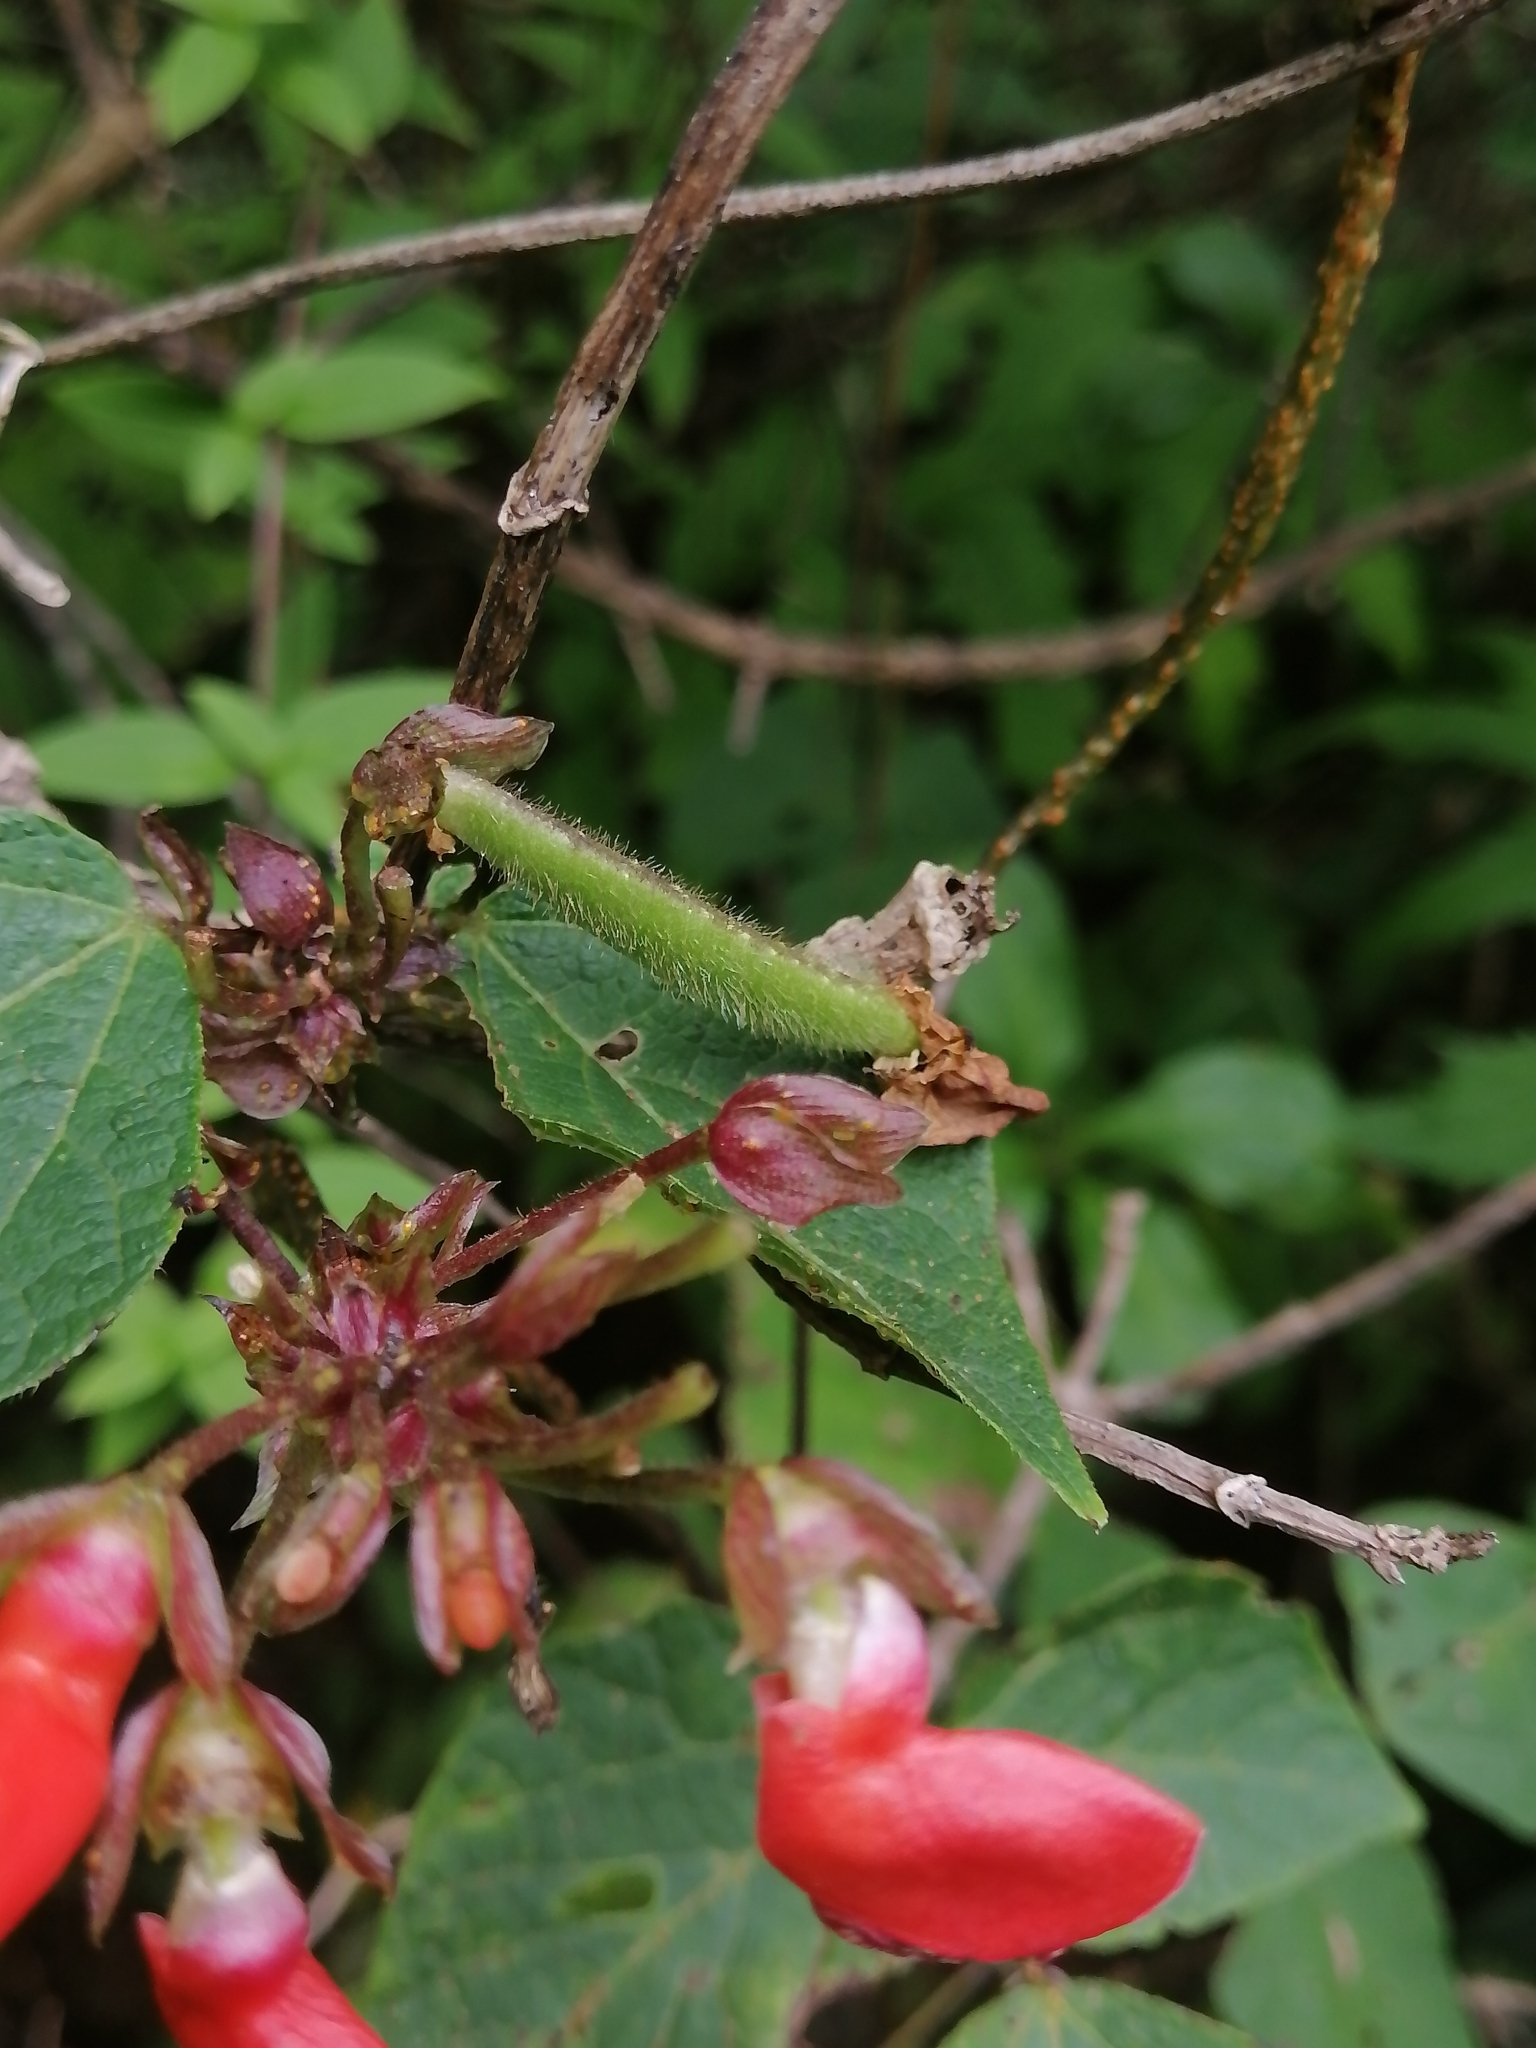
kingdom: Plantae
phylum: Tracheophyta
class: Magnoliopsida
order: Fabales
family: Fabaceae
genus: Phaseolus
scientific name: Phaseolus coccineus
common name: Runner bean
